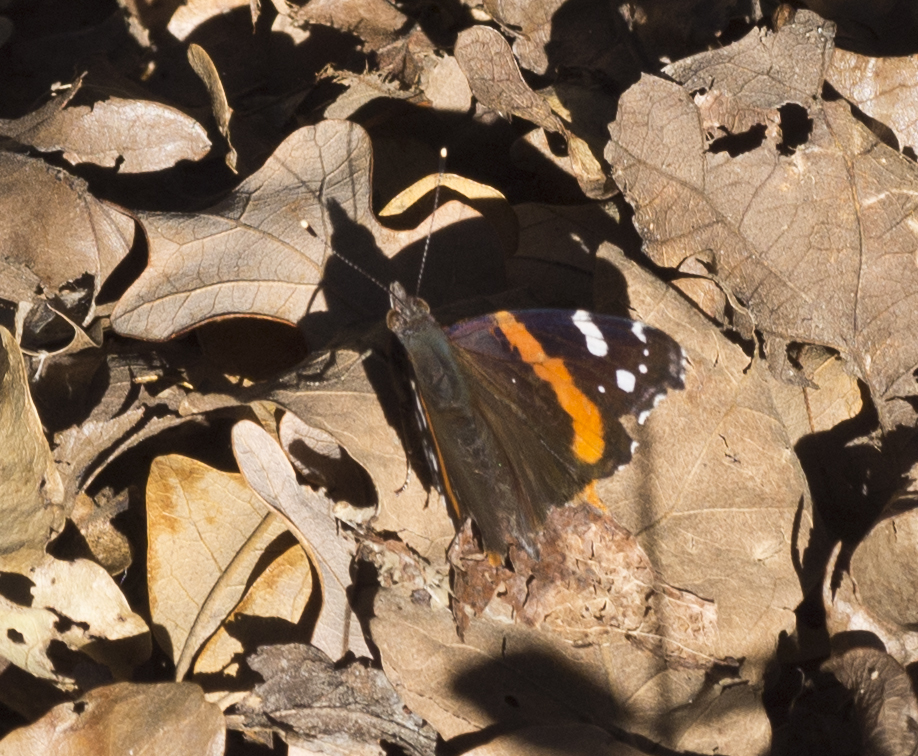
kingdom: Animalia
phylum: Arthropoda
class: Insecta
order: Lepidoptera
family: Nymphalidae
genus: Vanessa
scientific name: Vanessa atalanta
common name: Red admiral
